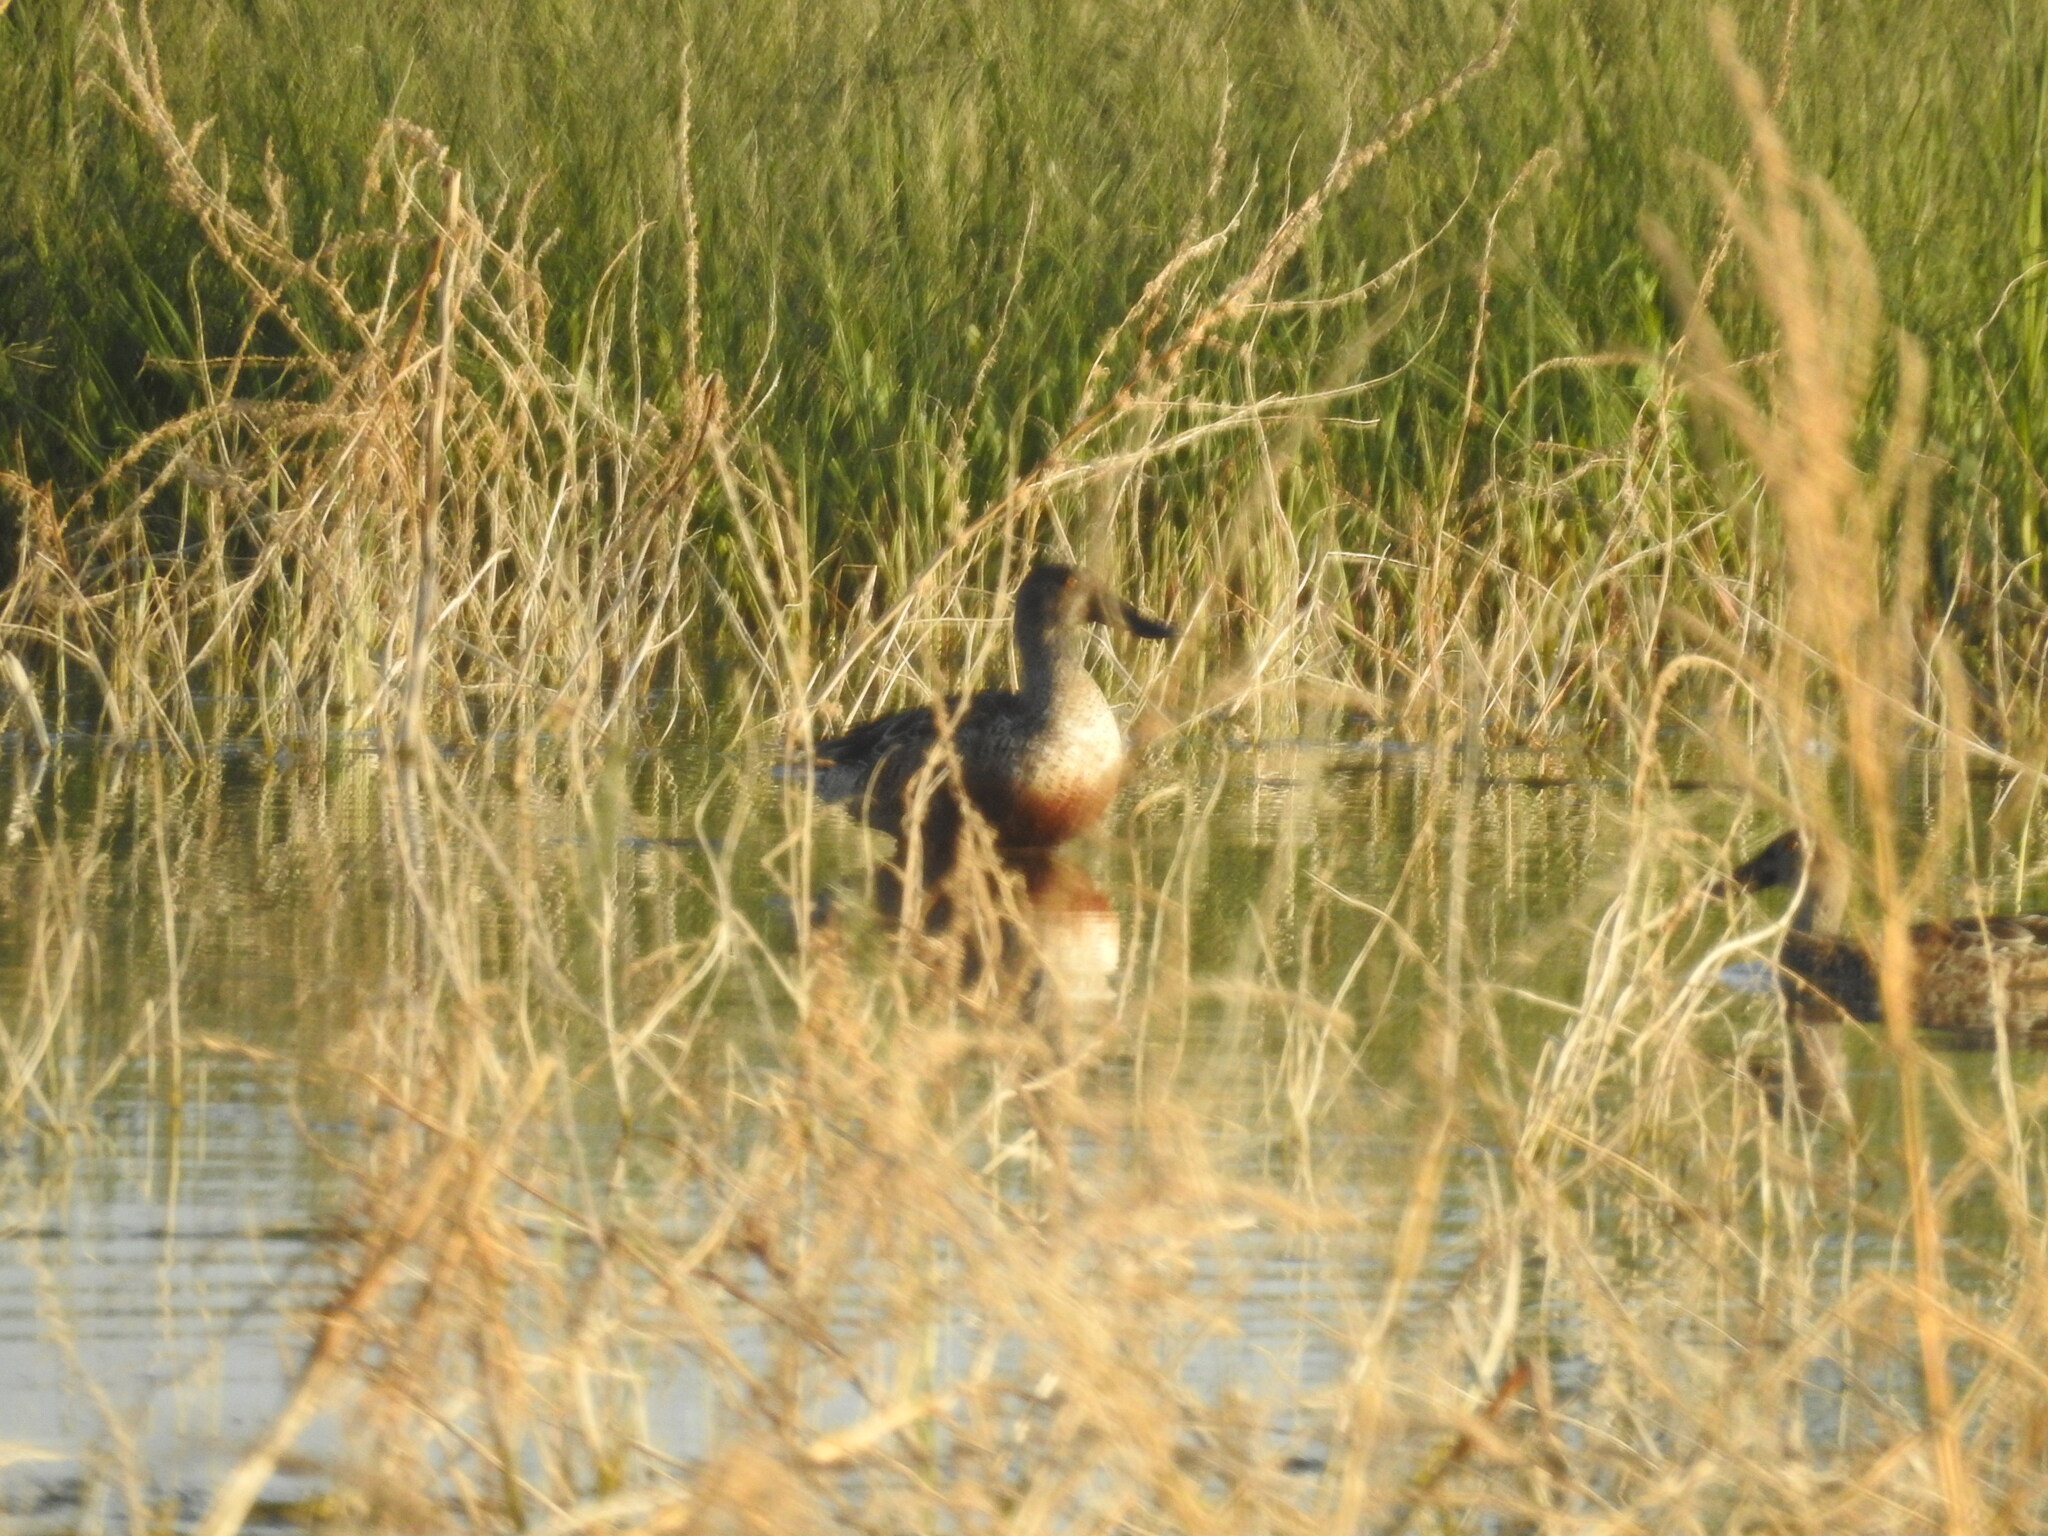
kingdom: Animalia
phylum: Chordata
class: Aves
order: Anseriformes
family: Anatidae
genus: Spatula
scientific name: Spatula clypeata
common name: Northern shoveler
